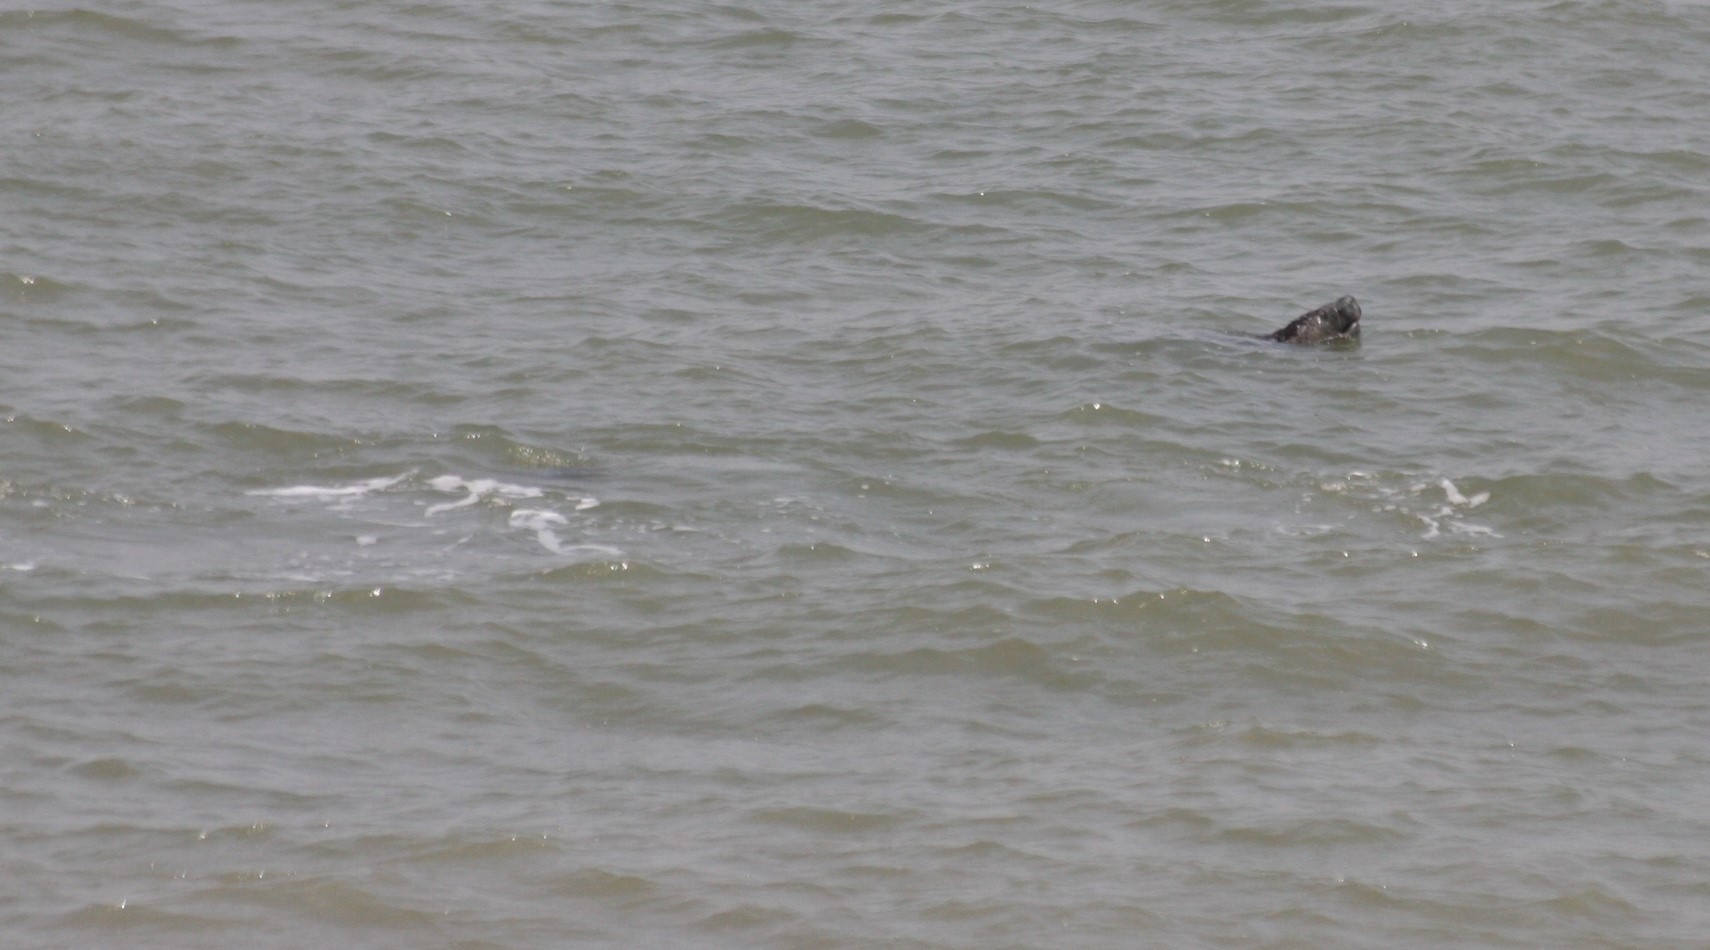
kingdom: Animalia
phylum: Chordata
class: Mammalia
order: Sirenia
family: Trichechidae
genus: Trichechus
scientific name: Trichechus senegalensis
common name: West african manatee
